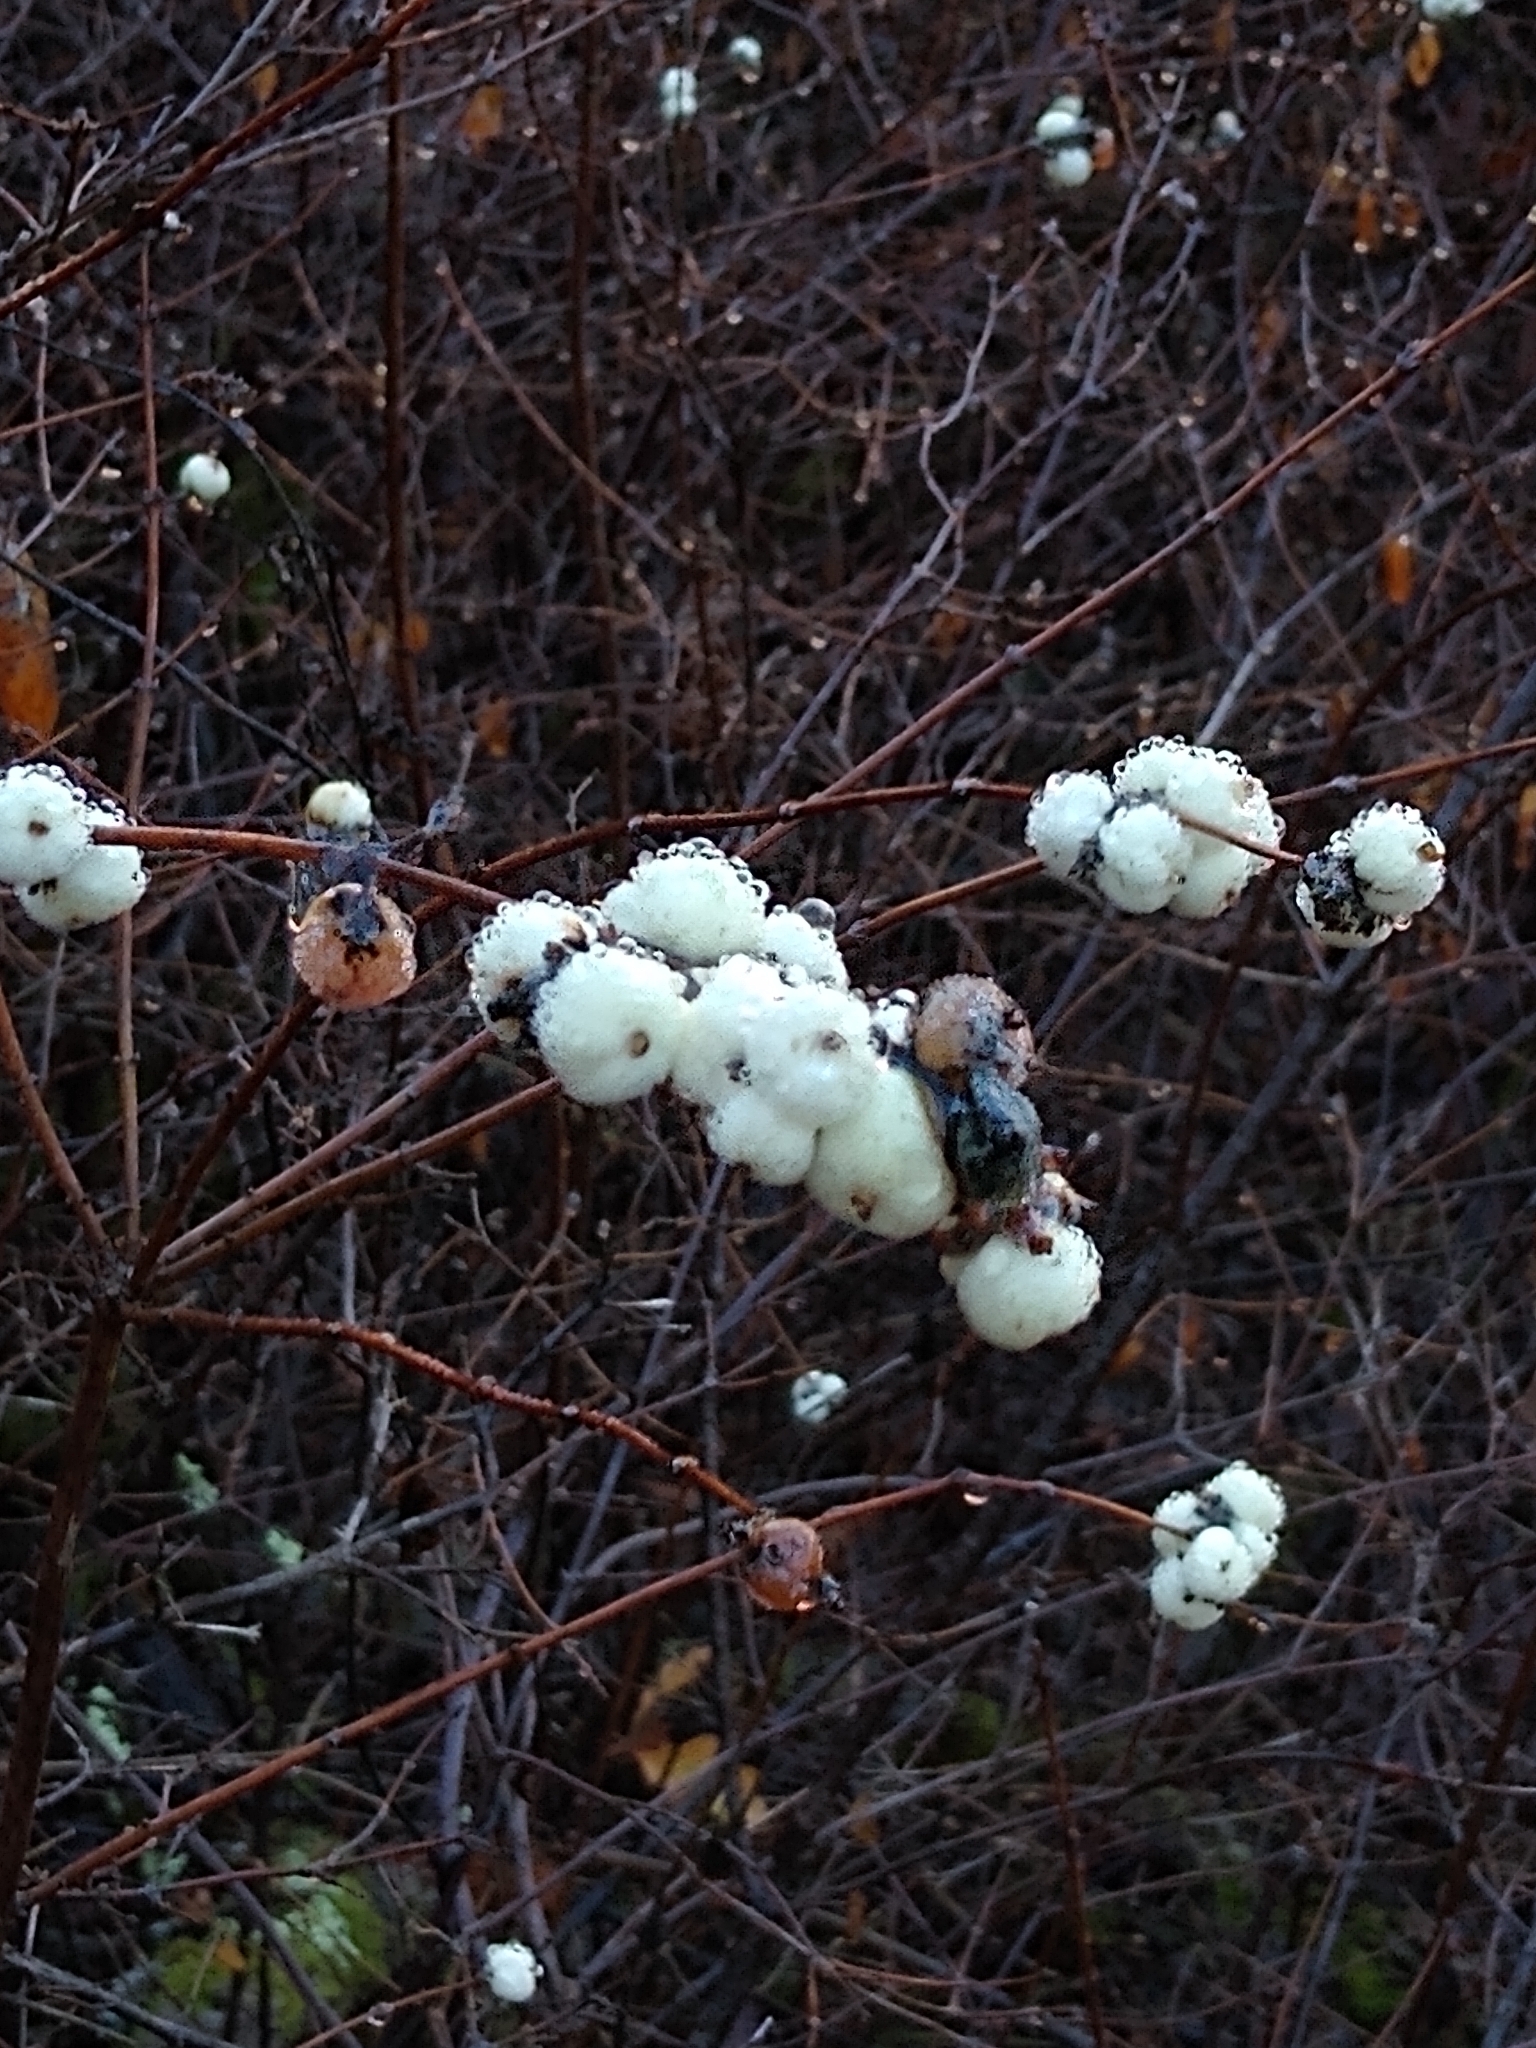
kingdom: Plantae
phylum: Tracheophyta
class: Magnoliopsida
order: Dipsacales
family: Caprifoliaceae
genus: Symphoricarpos
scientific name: Symphoricarpos albus
